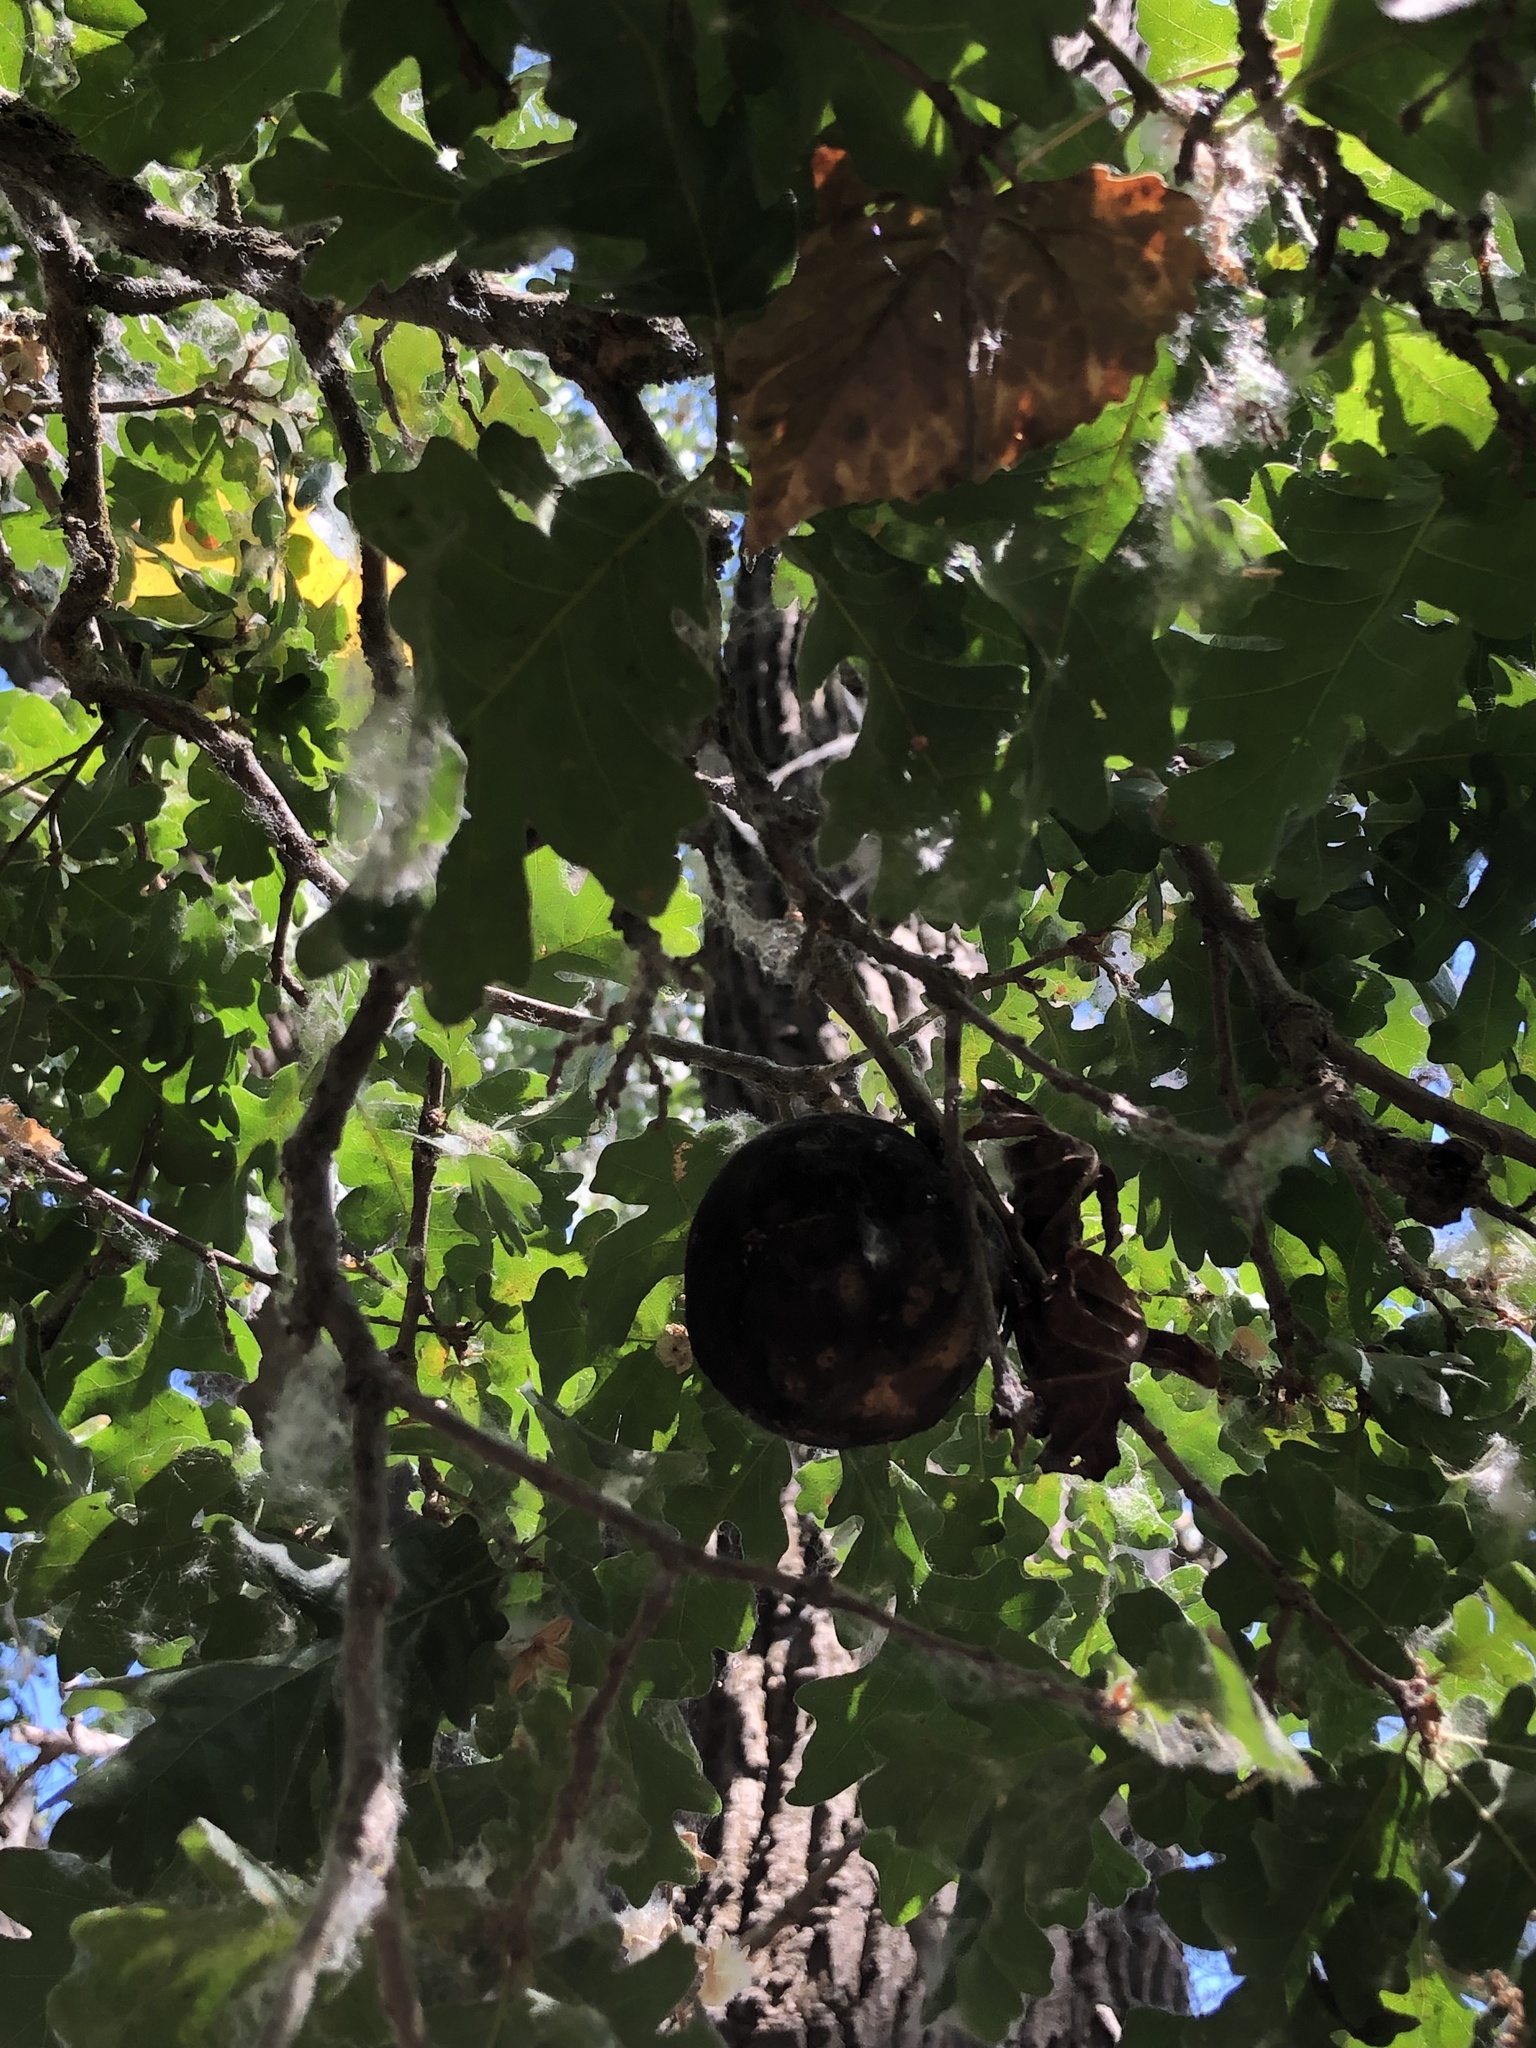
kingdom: Plantae
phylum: Tracheophyta
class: Magnoliopsida
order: Fagales
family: Fagaceae
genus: Quercus
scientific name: Quercus lobata
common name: Valley oak
